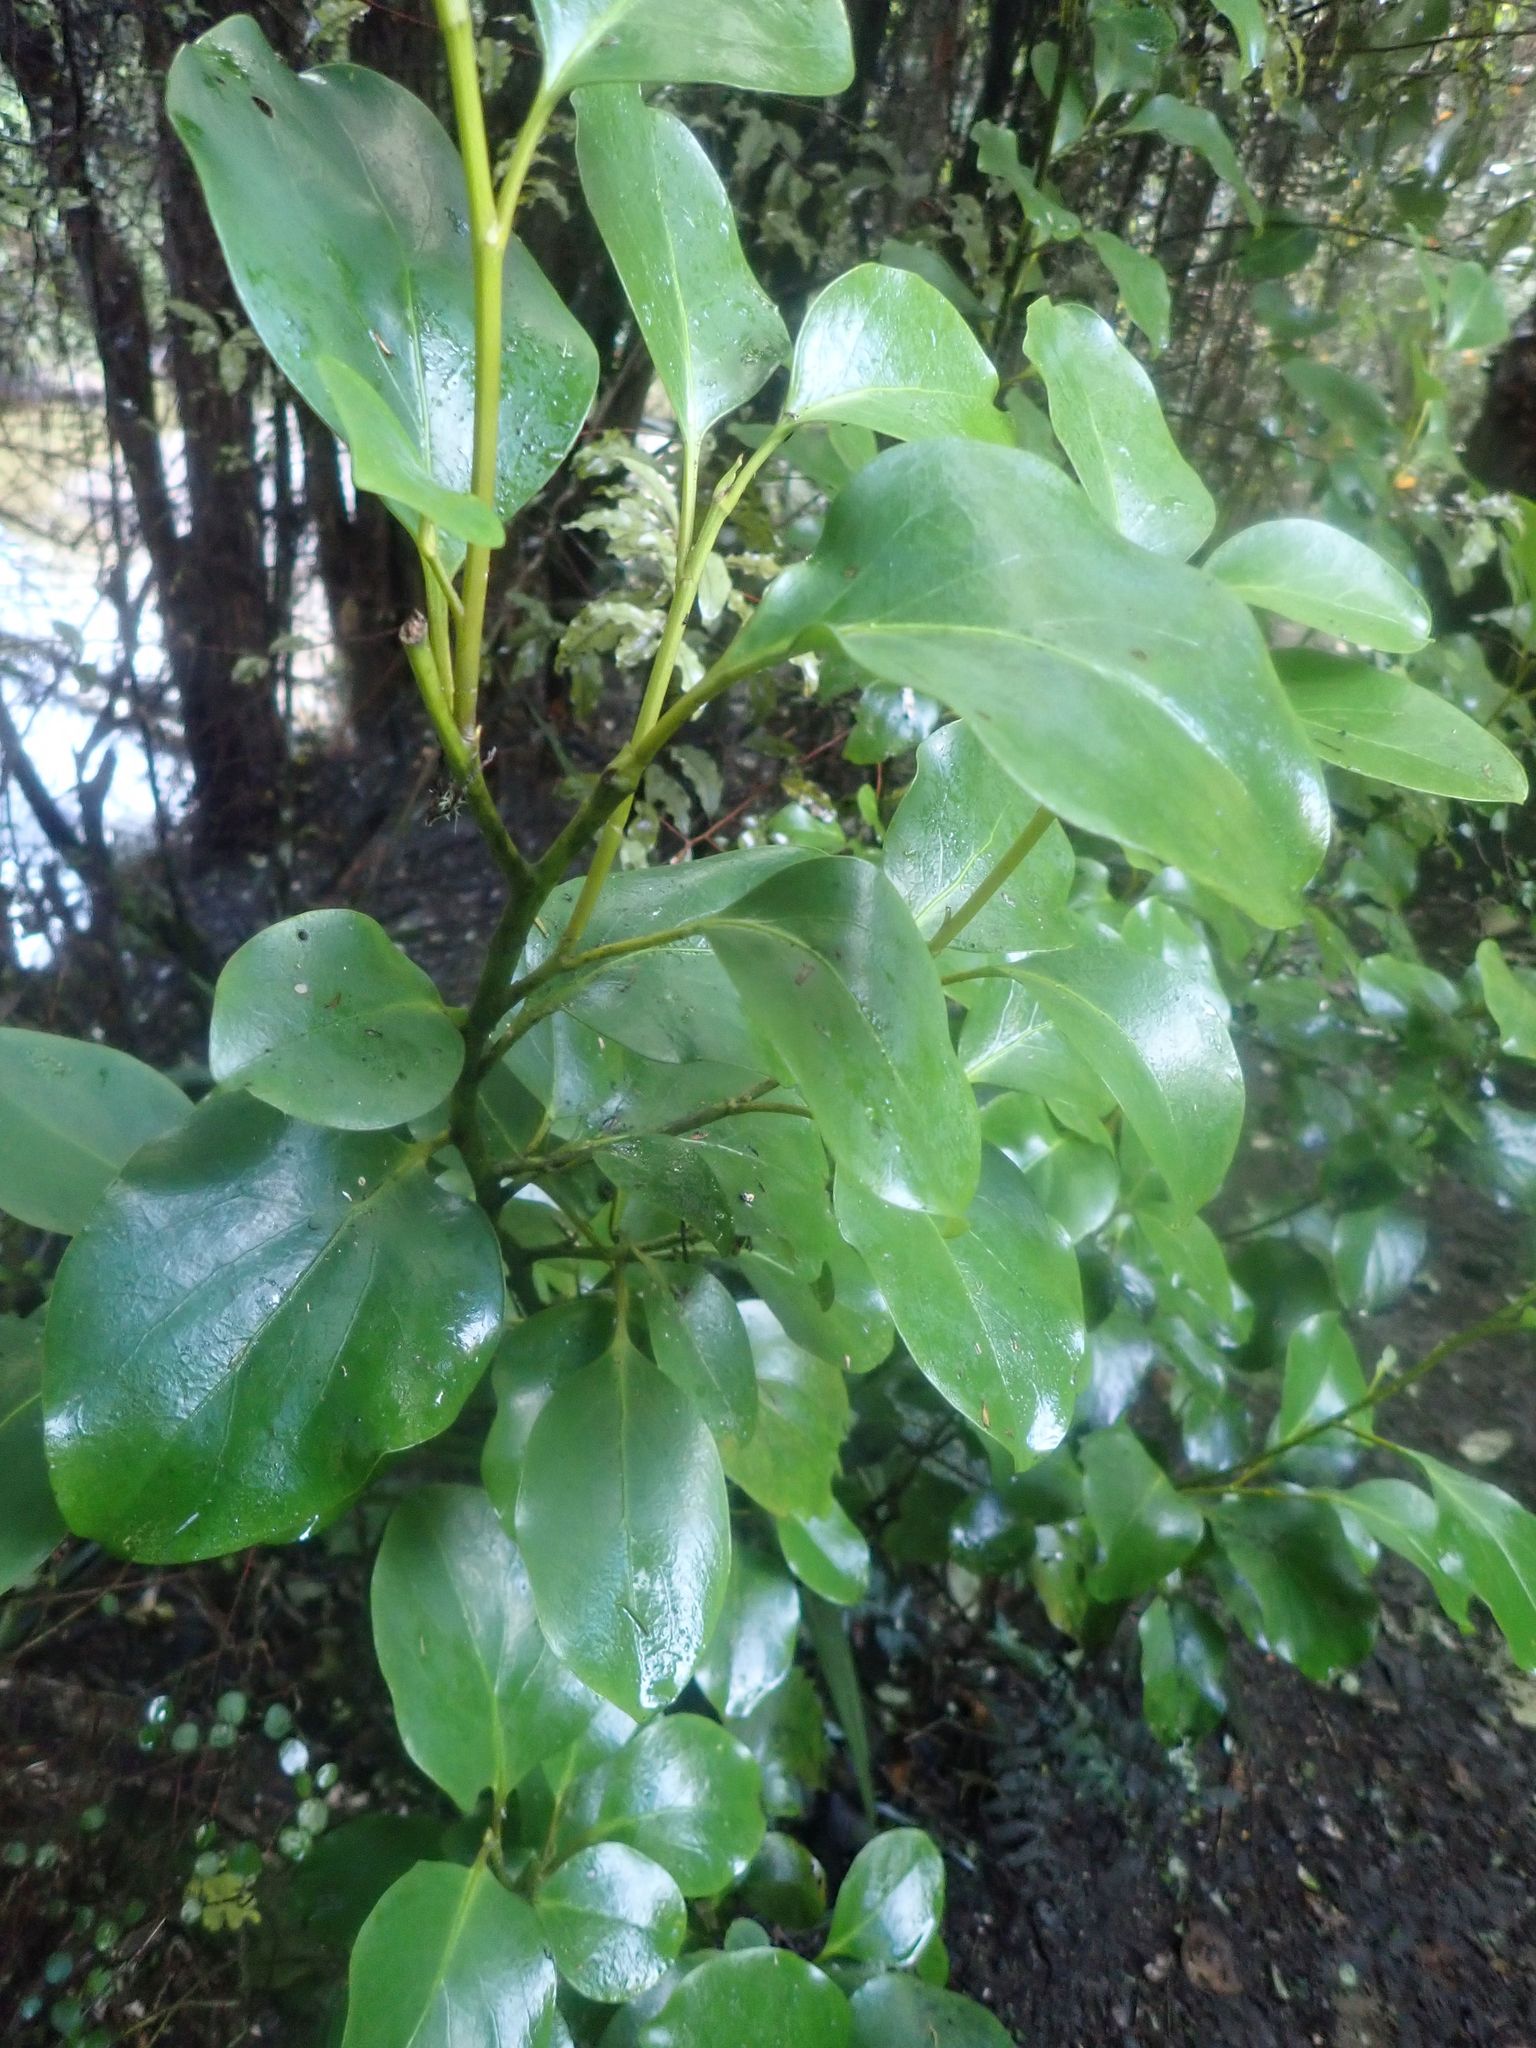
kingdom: Plantae
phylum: Tracheophyta
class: Magnoliopsida
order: Apiales
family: Griseliniaceae
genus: Griselinia
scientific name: Griselinia littoralis
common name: New zealand broadleaf
